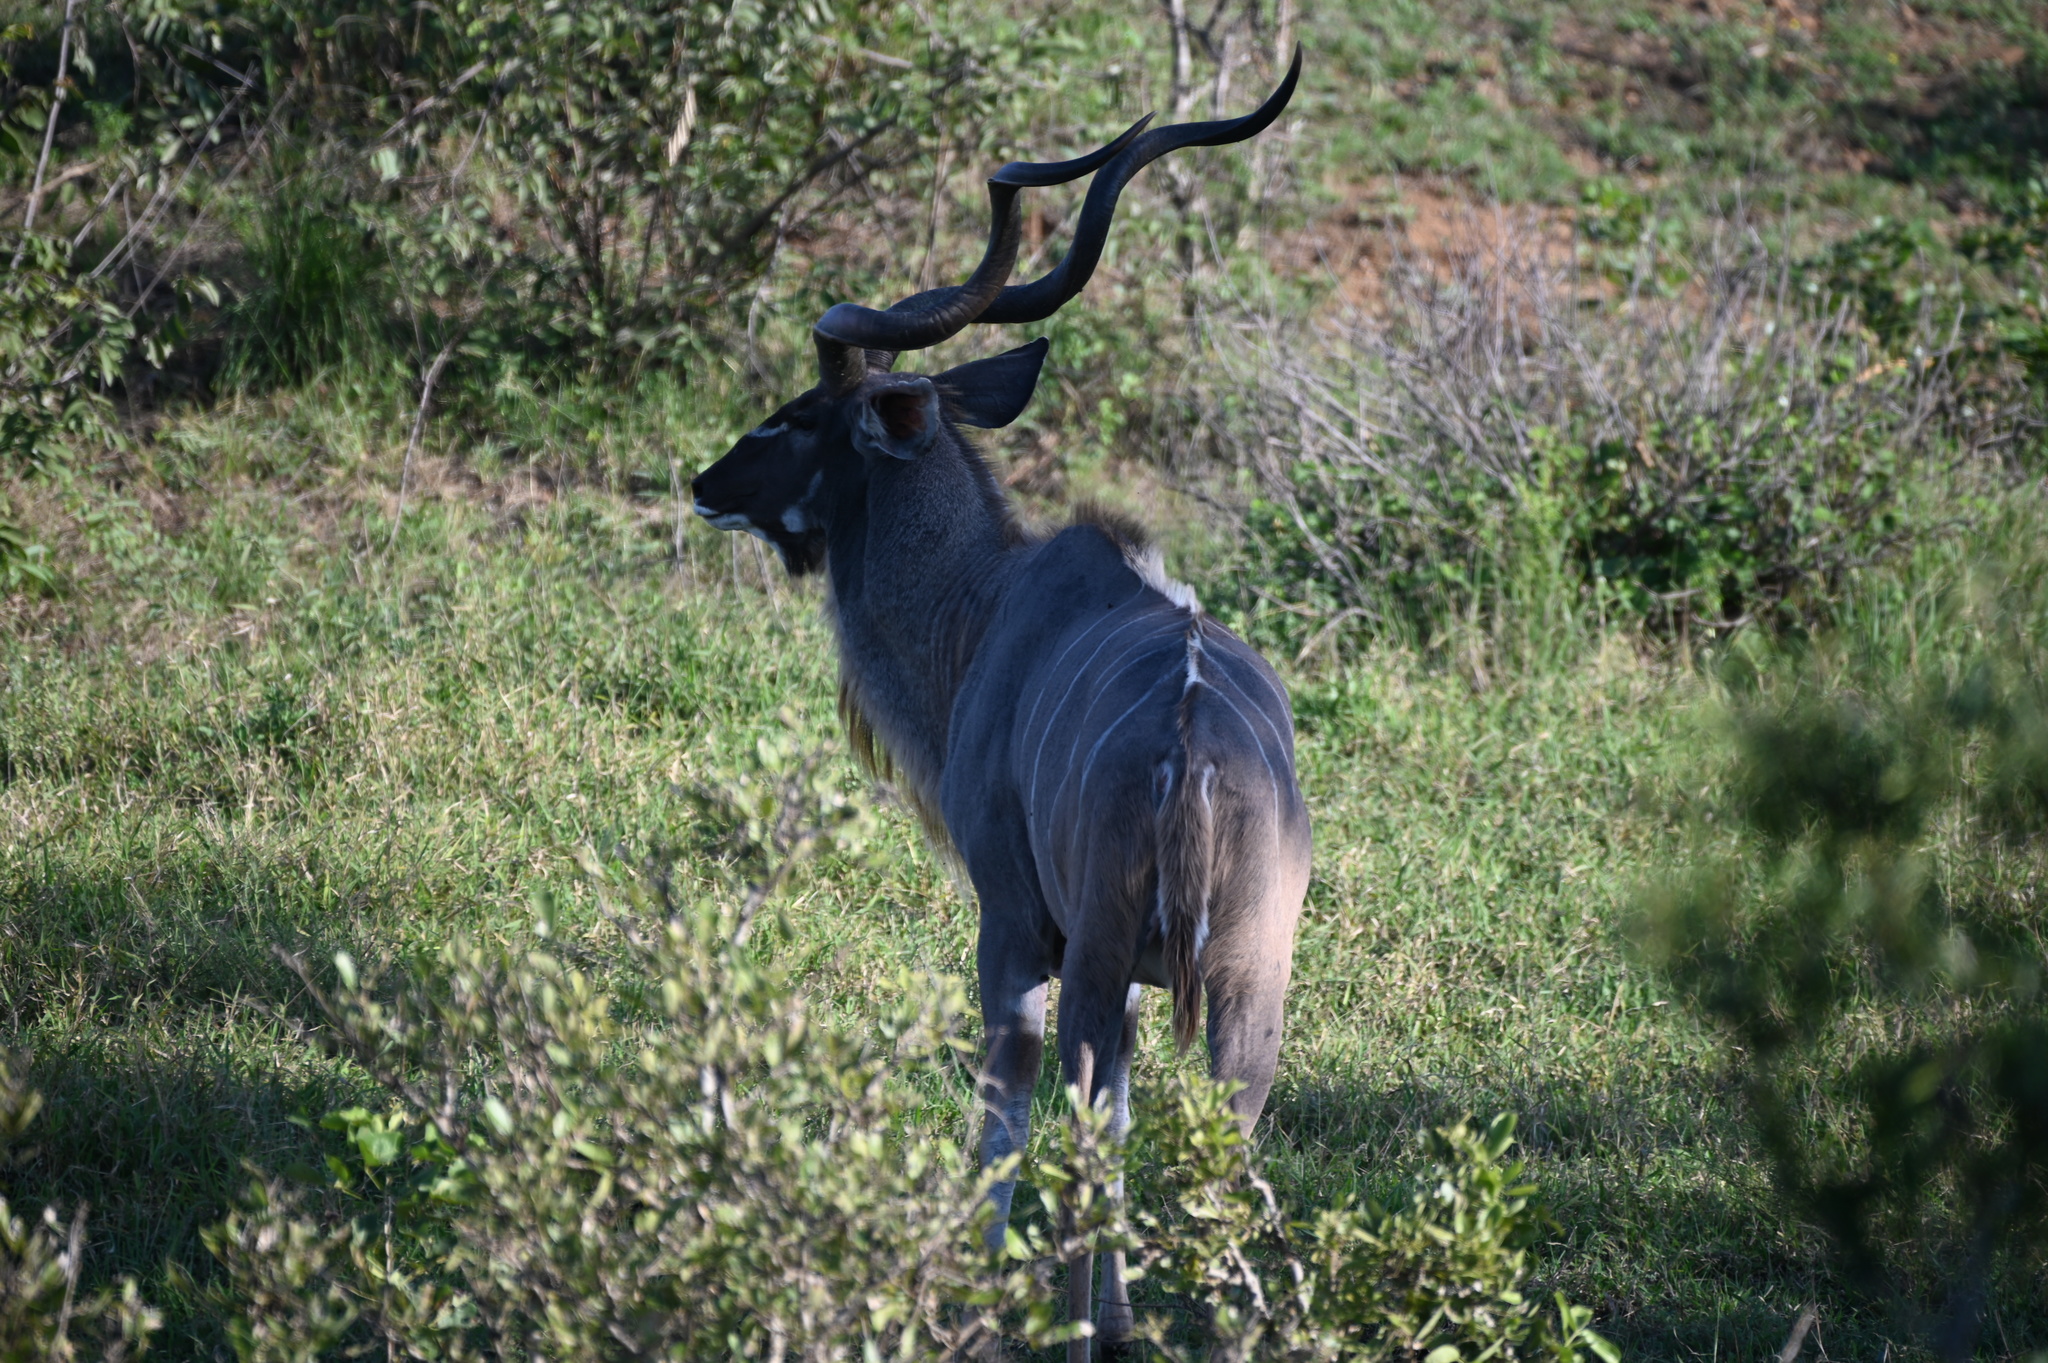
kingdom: Animalia
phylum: Chordata
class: Mammalia
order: Artiodactyla
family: Bovidae
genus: Tragelaphus
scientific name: Tragelaphus strepsiceros
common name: Greater kudu
